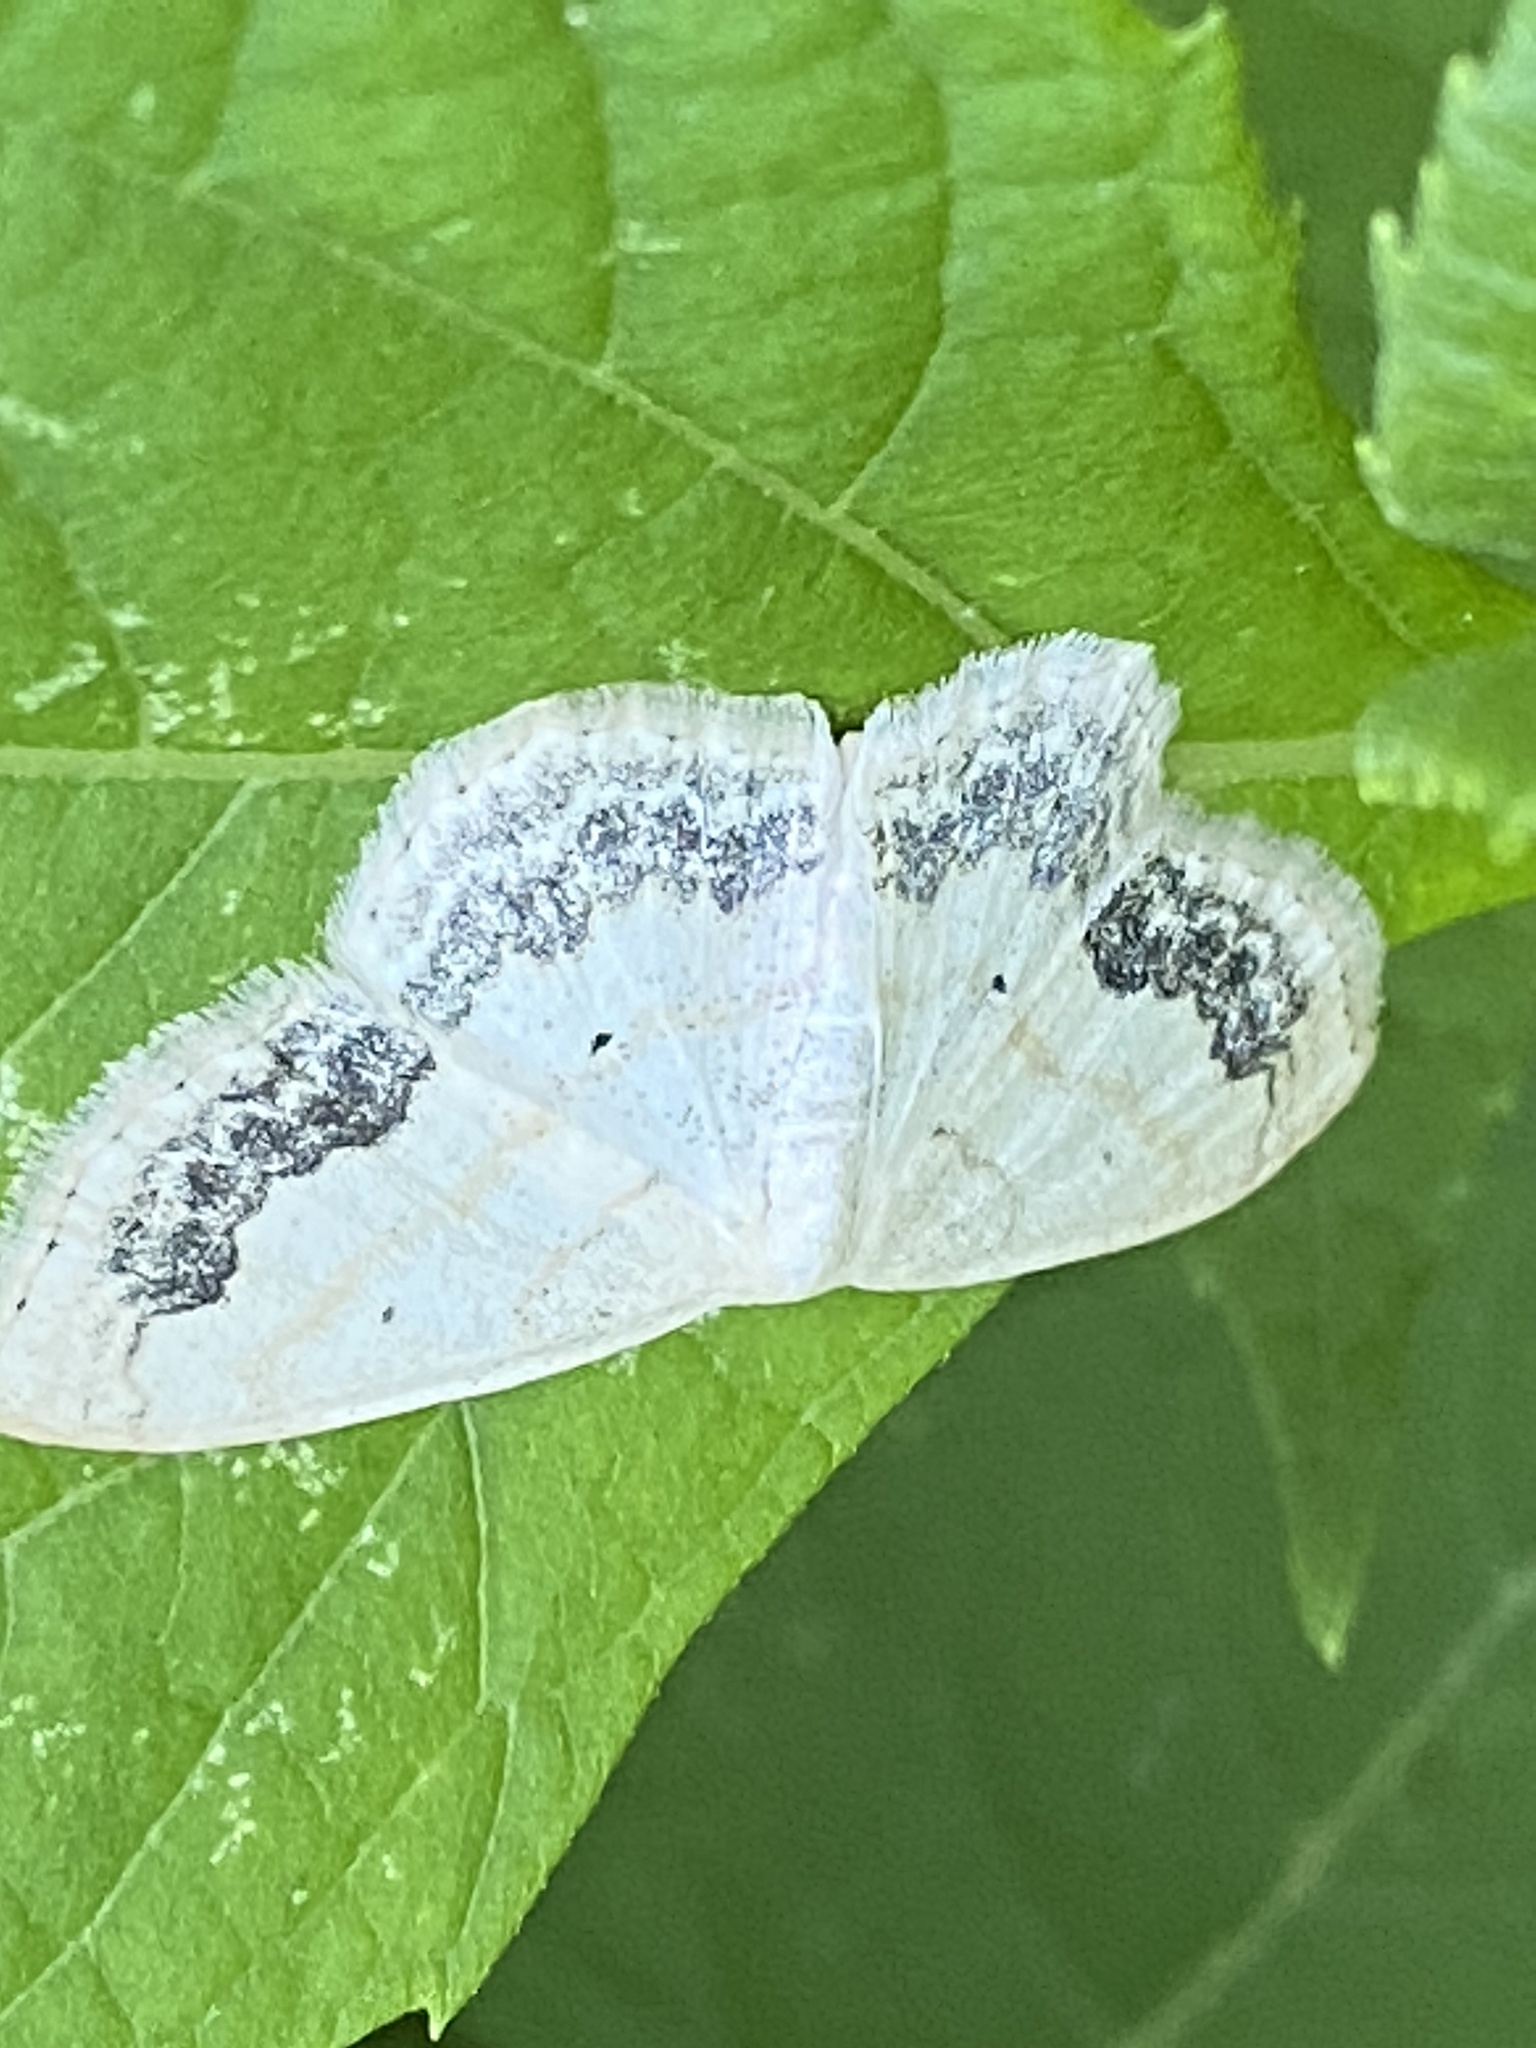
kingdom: Animalia
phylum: Arthropoda
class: Insecta
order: Lepidoptera
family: Geometridae
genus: Scopula
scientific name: Scopula limboundata
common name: Large lace border
